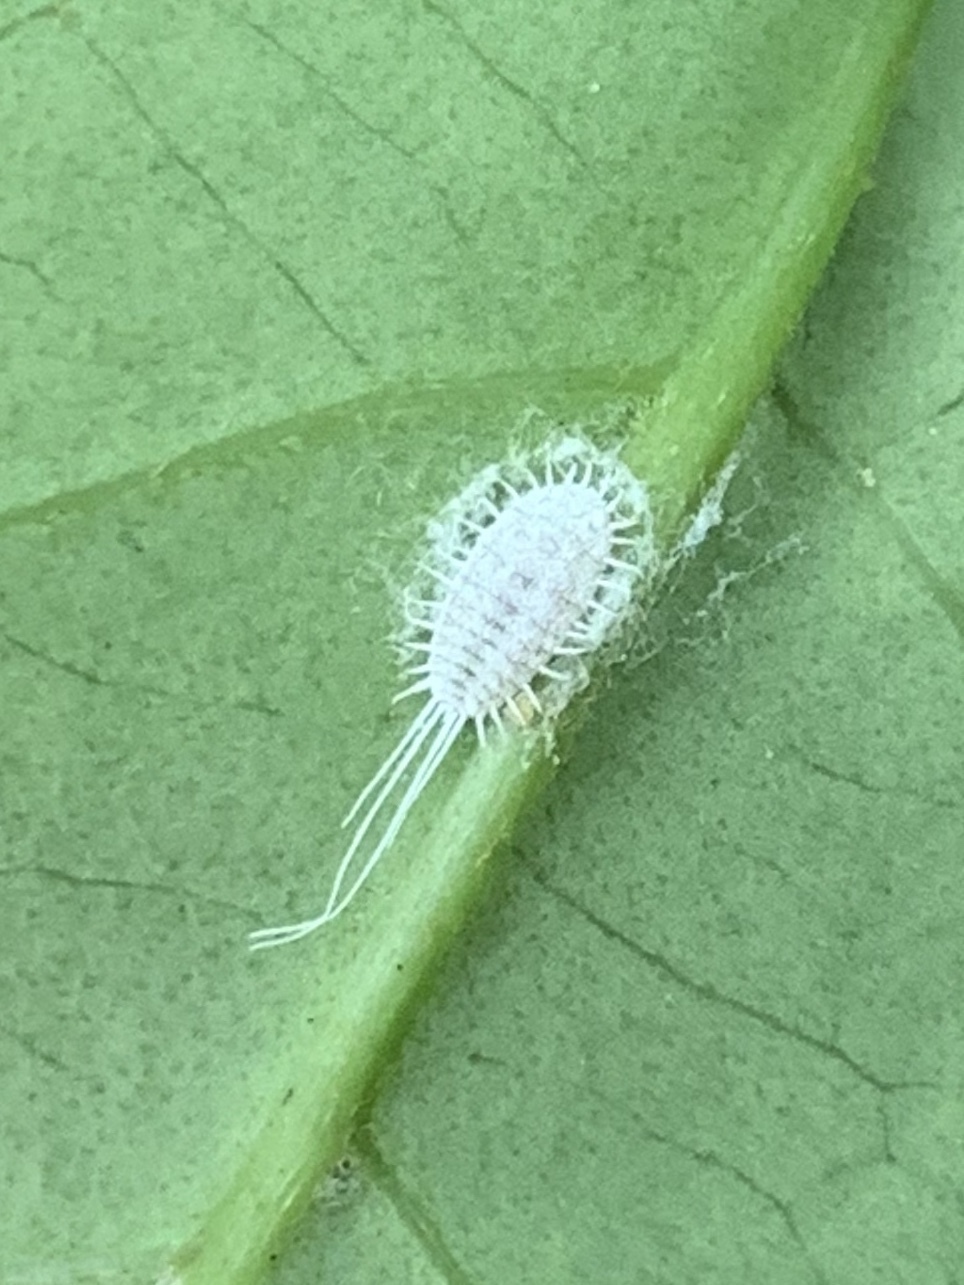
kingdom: Animalia
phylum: Arthropoda
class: Insecta
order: Hemiptera
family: Pseudococcidae
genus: Pseudococcus
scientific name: Pseudococcus longispinus
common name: Long-tailed mealybug
